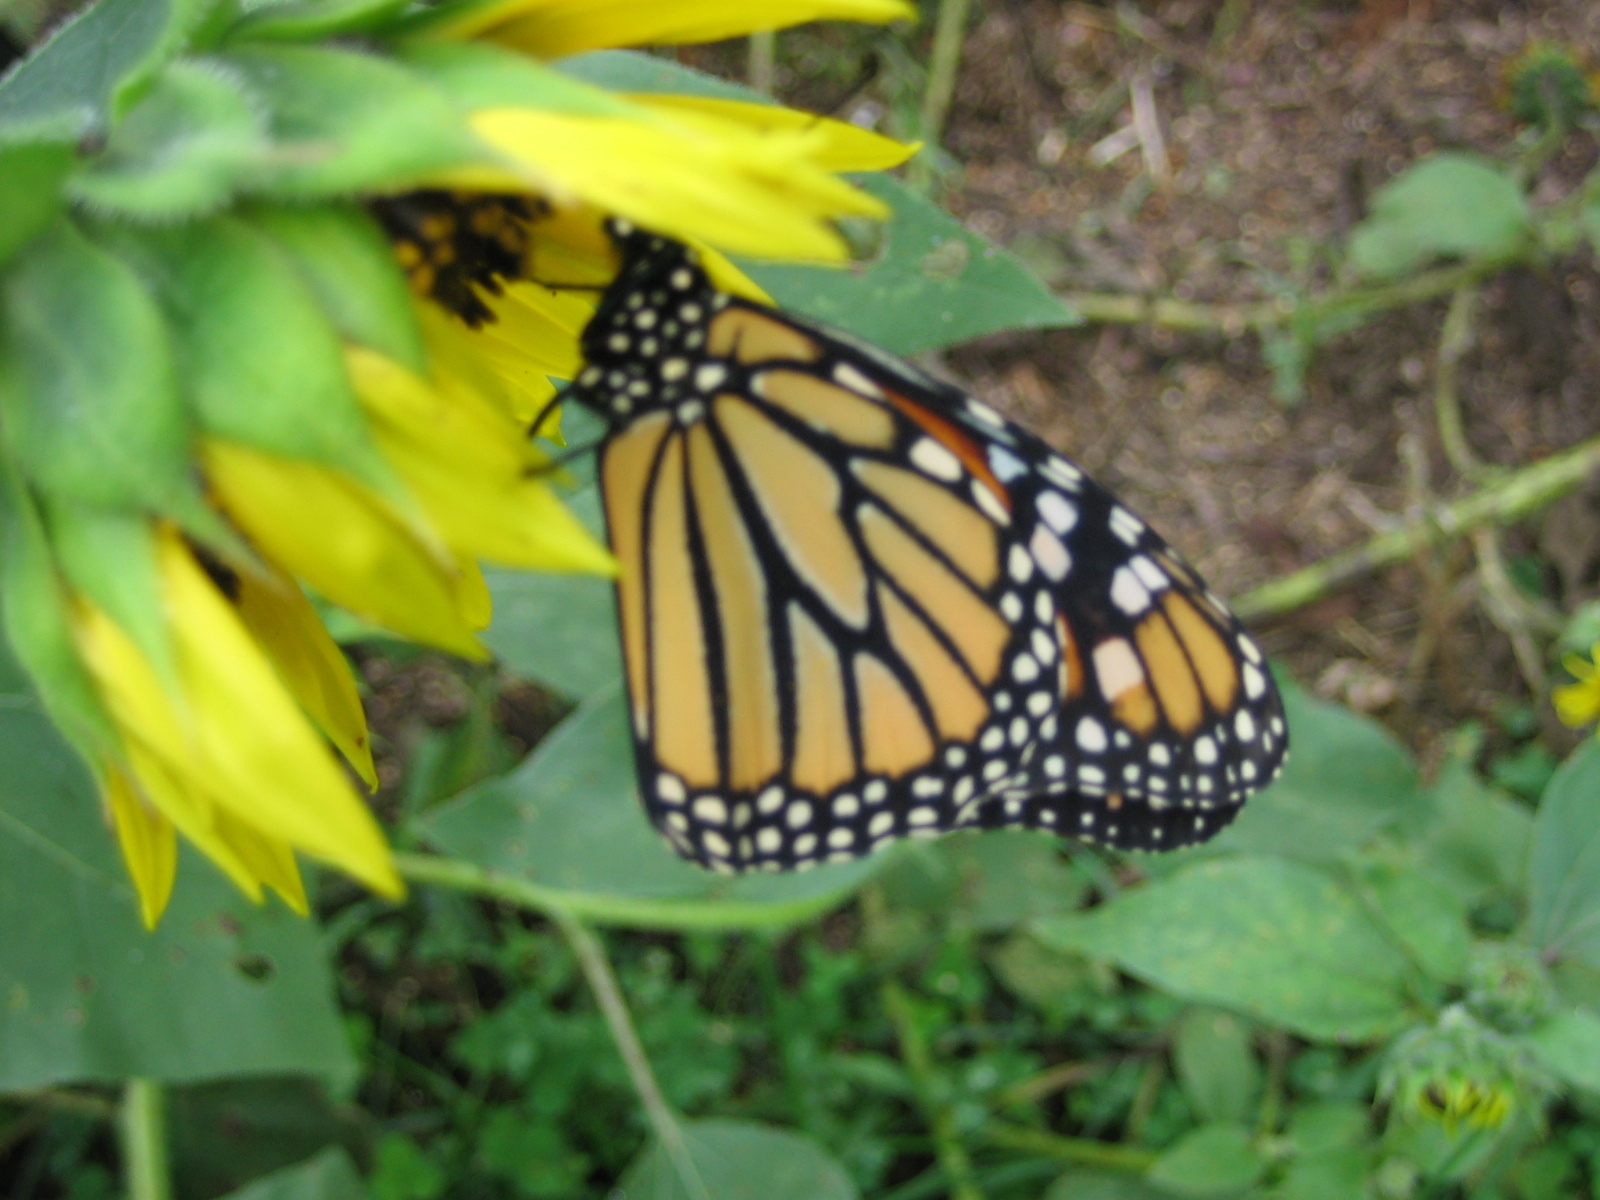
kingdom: Animalia
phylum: Arthropoda
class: Insecta
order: Lepidoptera
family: Nymphalidae
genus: Danaus
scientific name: Danaus plexippus
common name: Monarch
